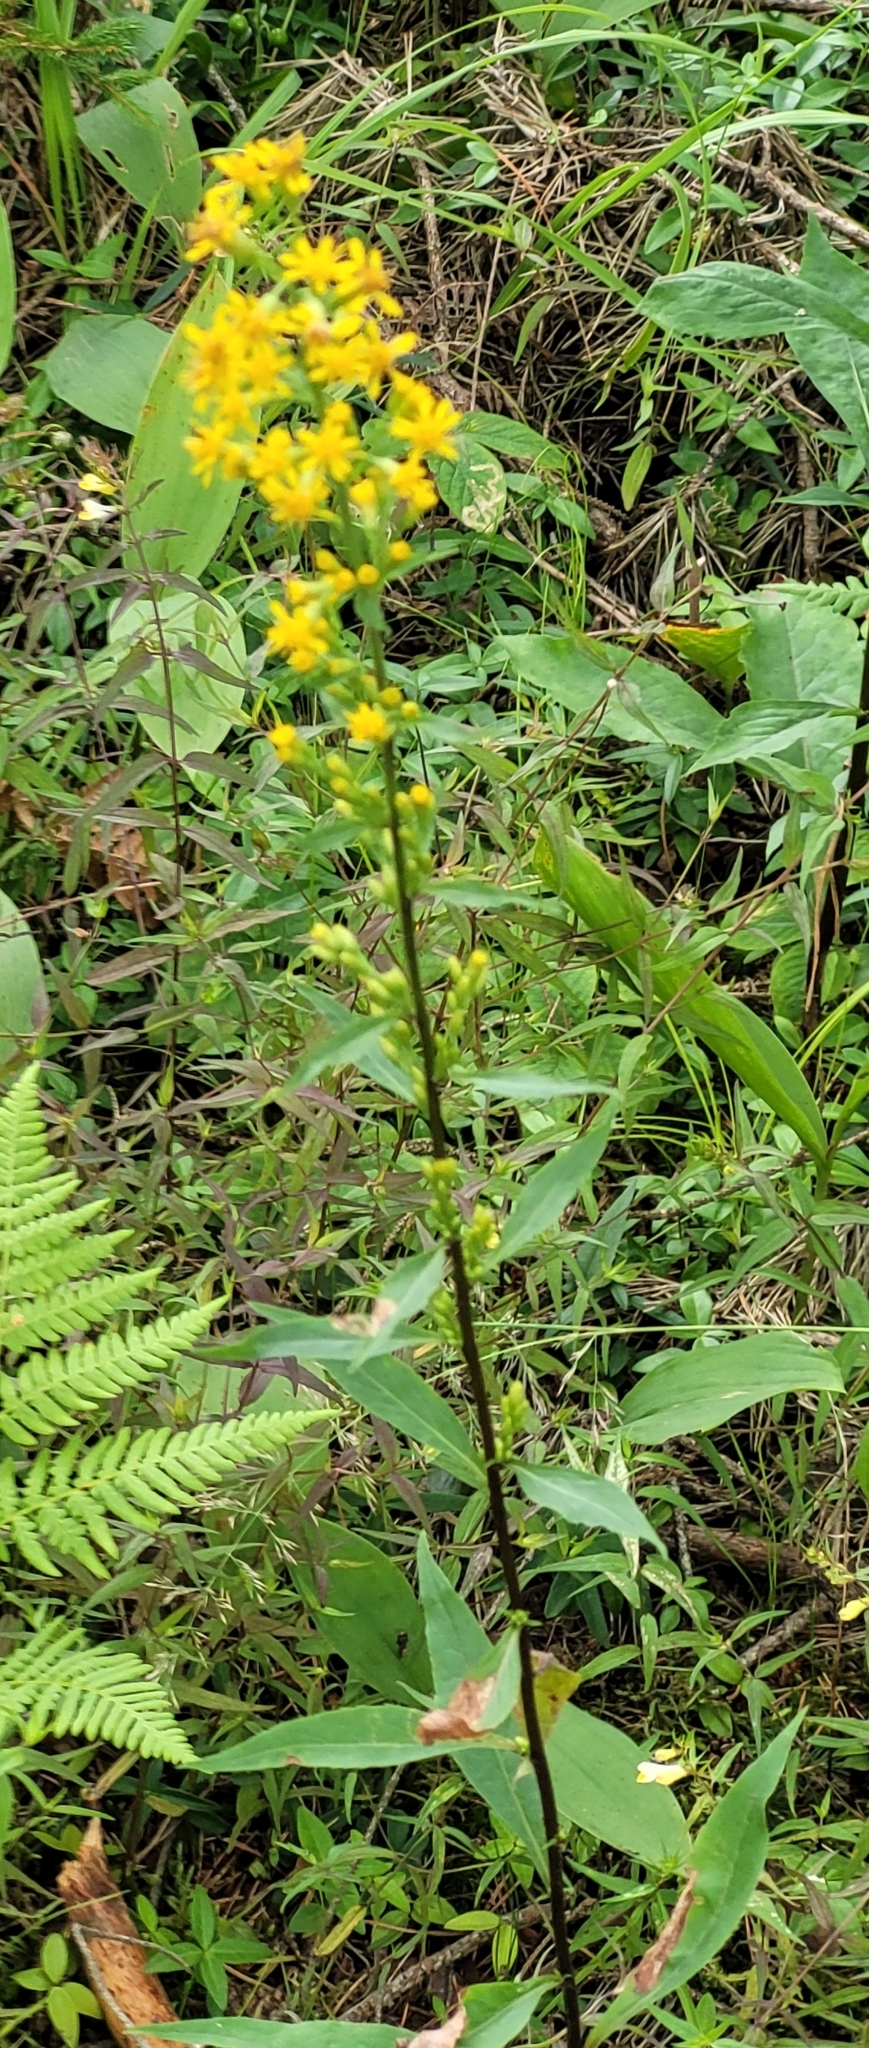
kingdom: Plantae
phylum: Tracheophyta
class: Magnoliopsida
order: Asterales
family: Asteraceae
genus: Solidago
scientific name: Solidago virgaurea
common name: Goldenrod
